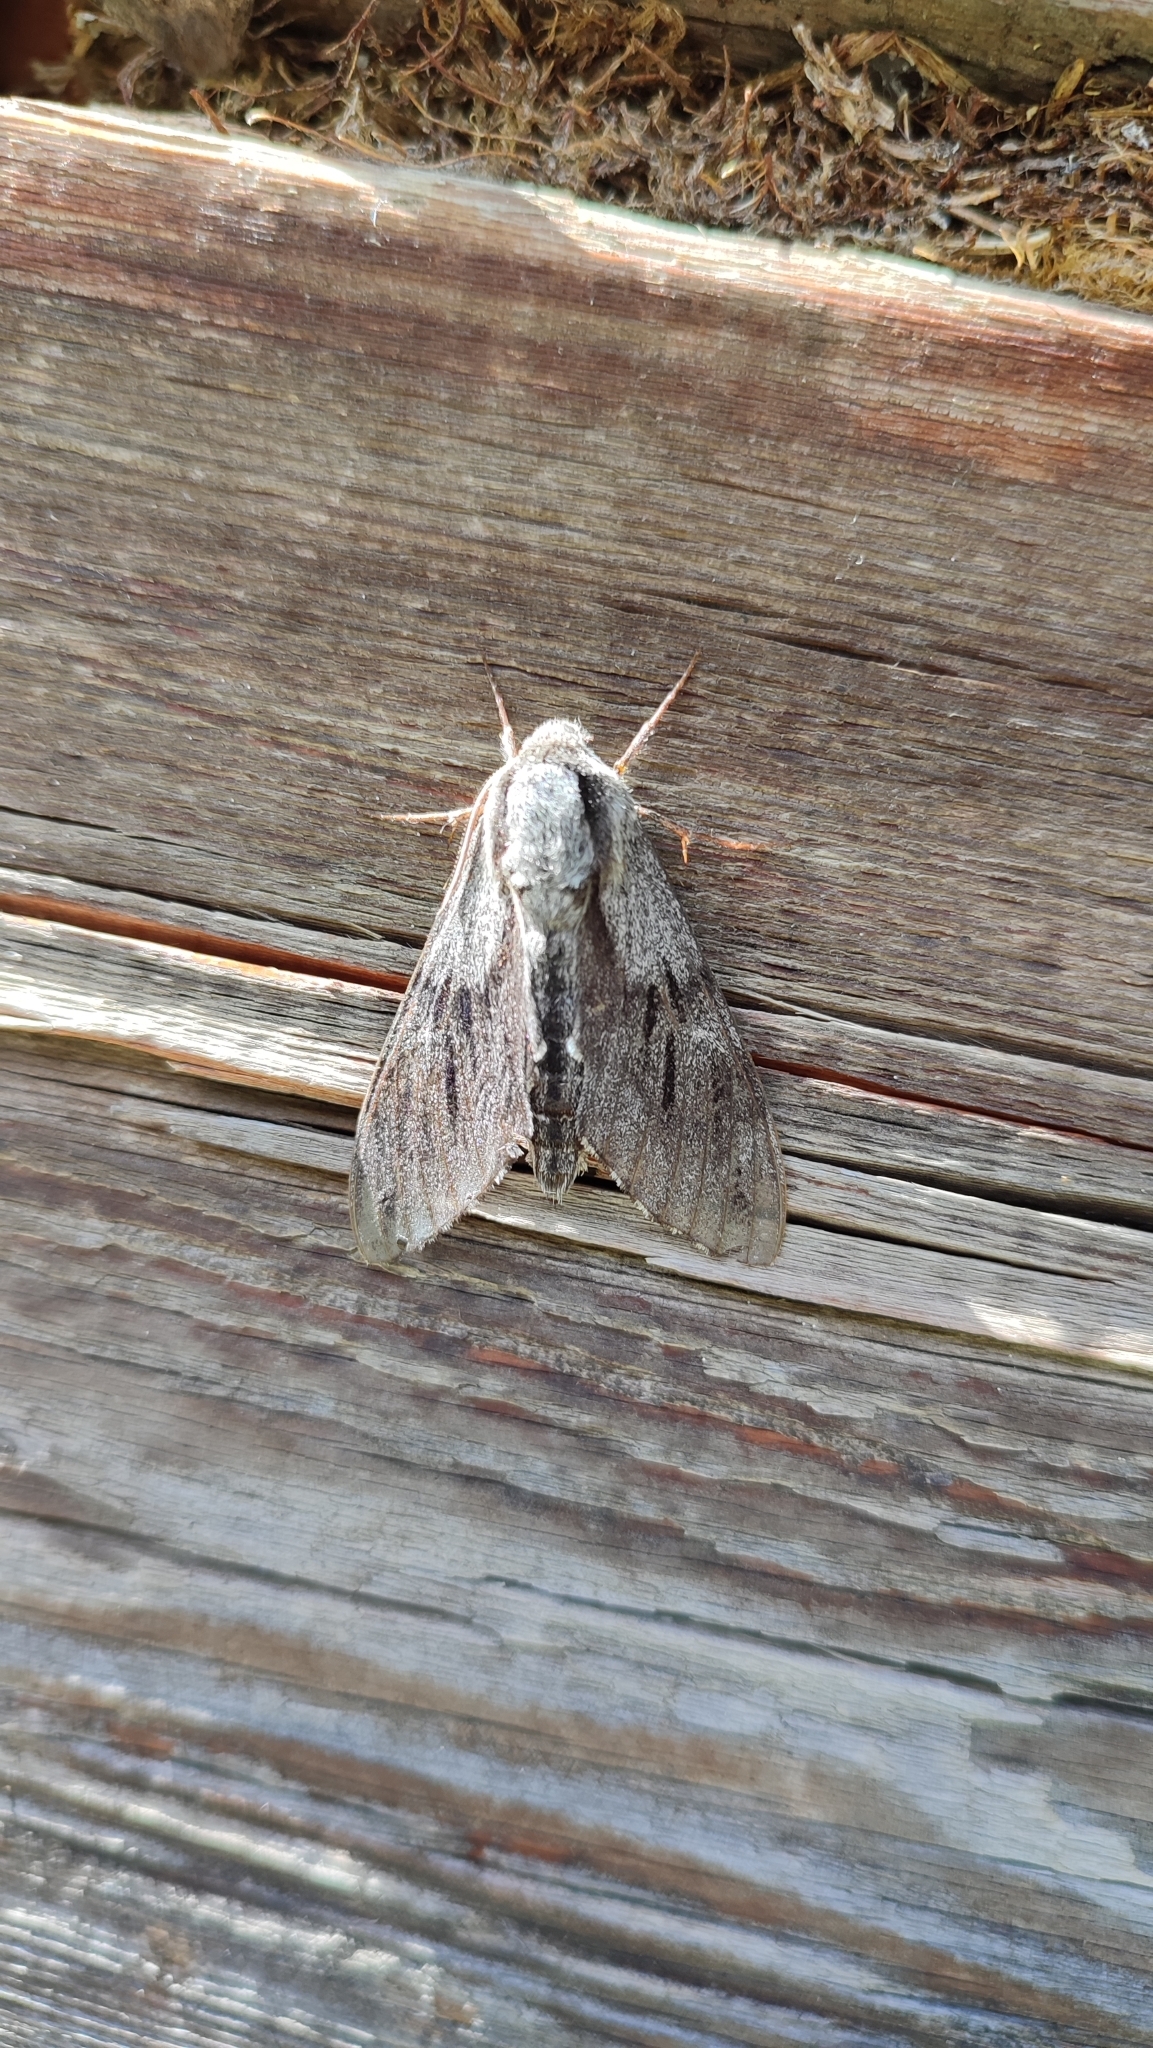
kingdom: Animalia
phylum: Arthropoda
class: Insecta
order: Lepidoptera
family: Sphingidae
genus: Sphinx
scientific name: Sphinx morio
